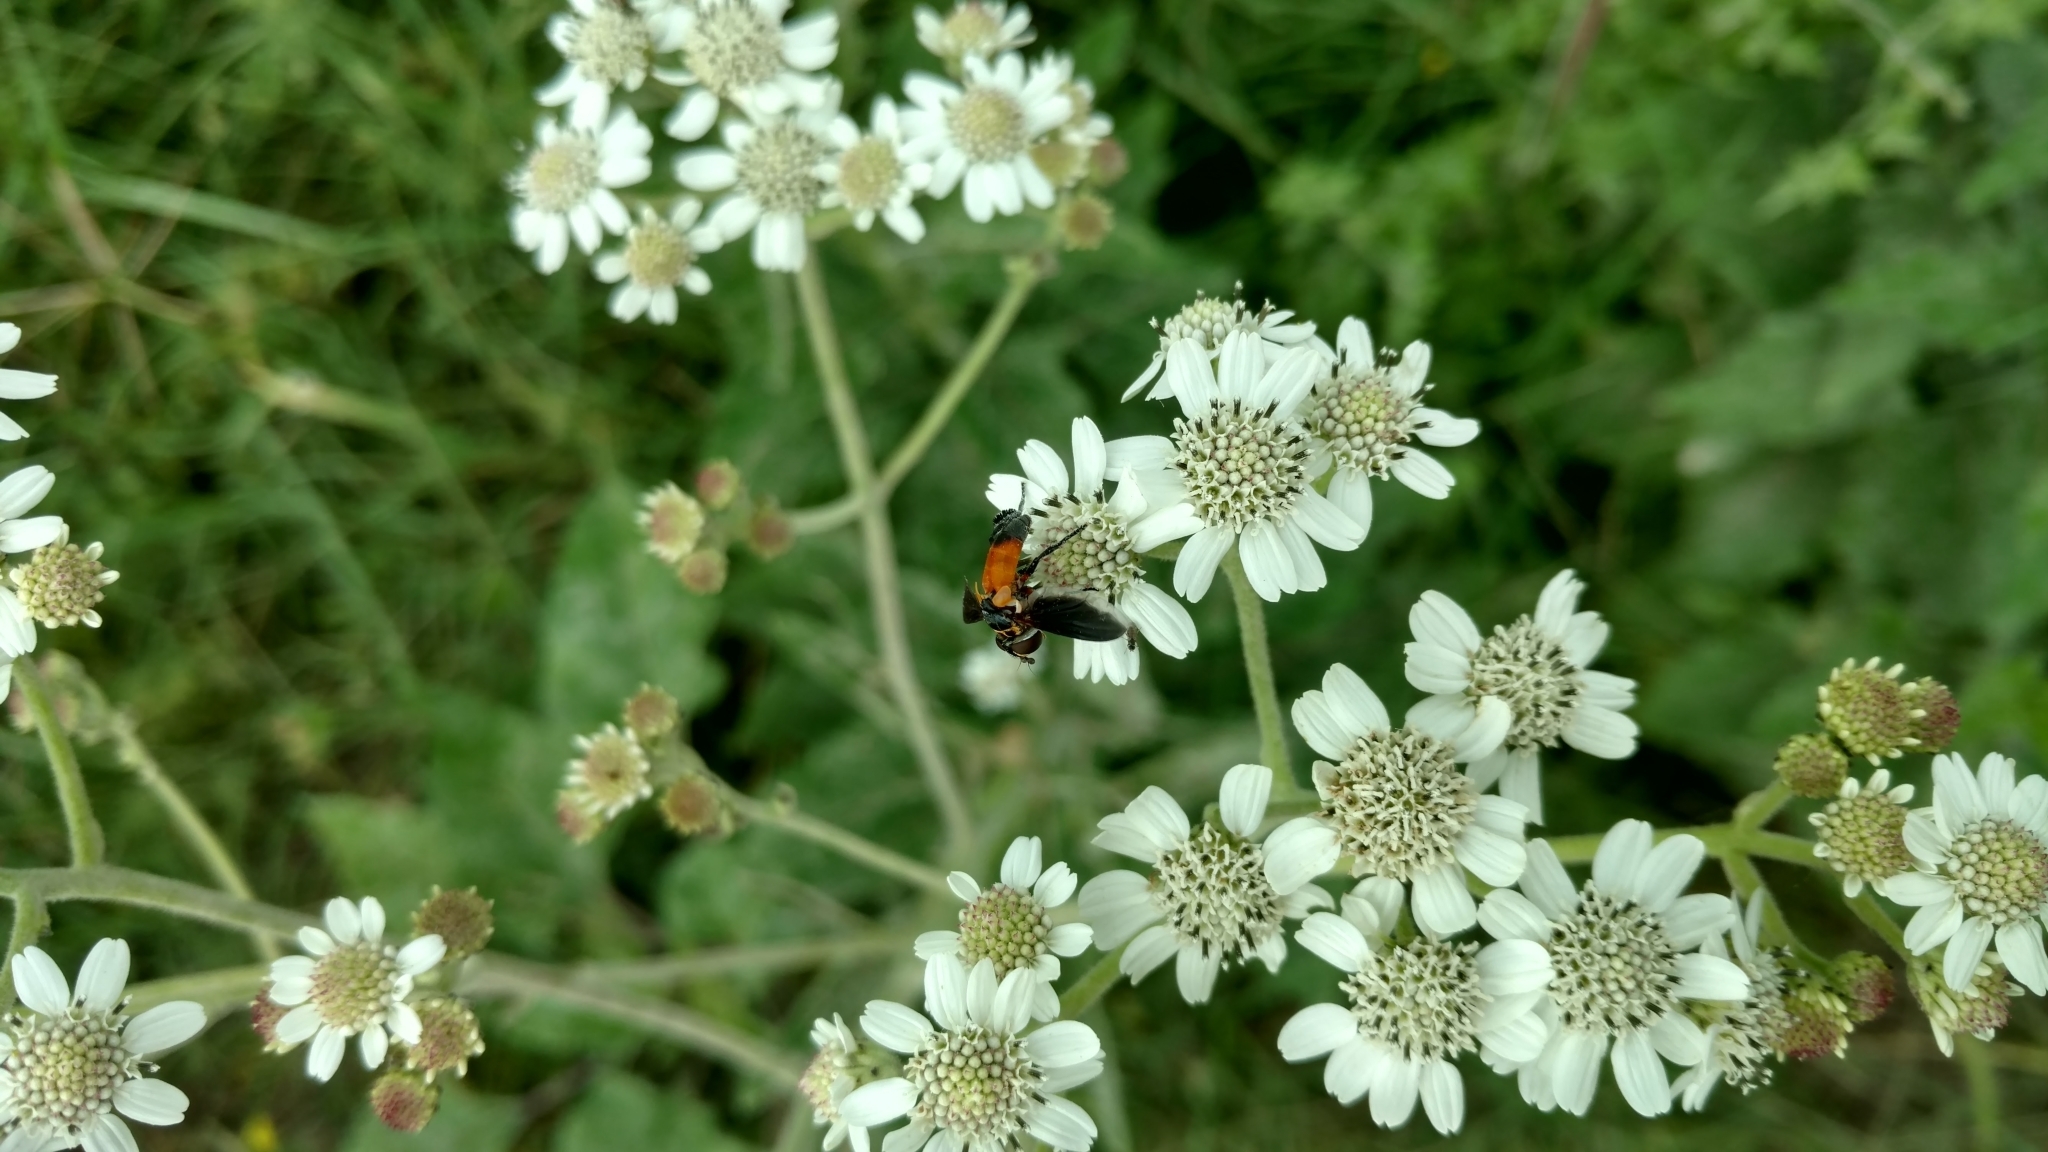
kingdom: Plantae
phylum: Tracheophyta
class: Magnoliopsida
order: Asterales
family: Asteraceae
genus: Verbesina
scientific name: Verbesina microptera
